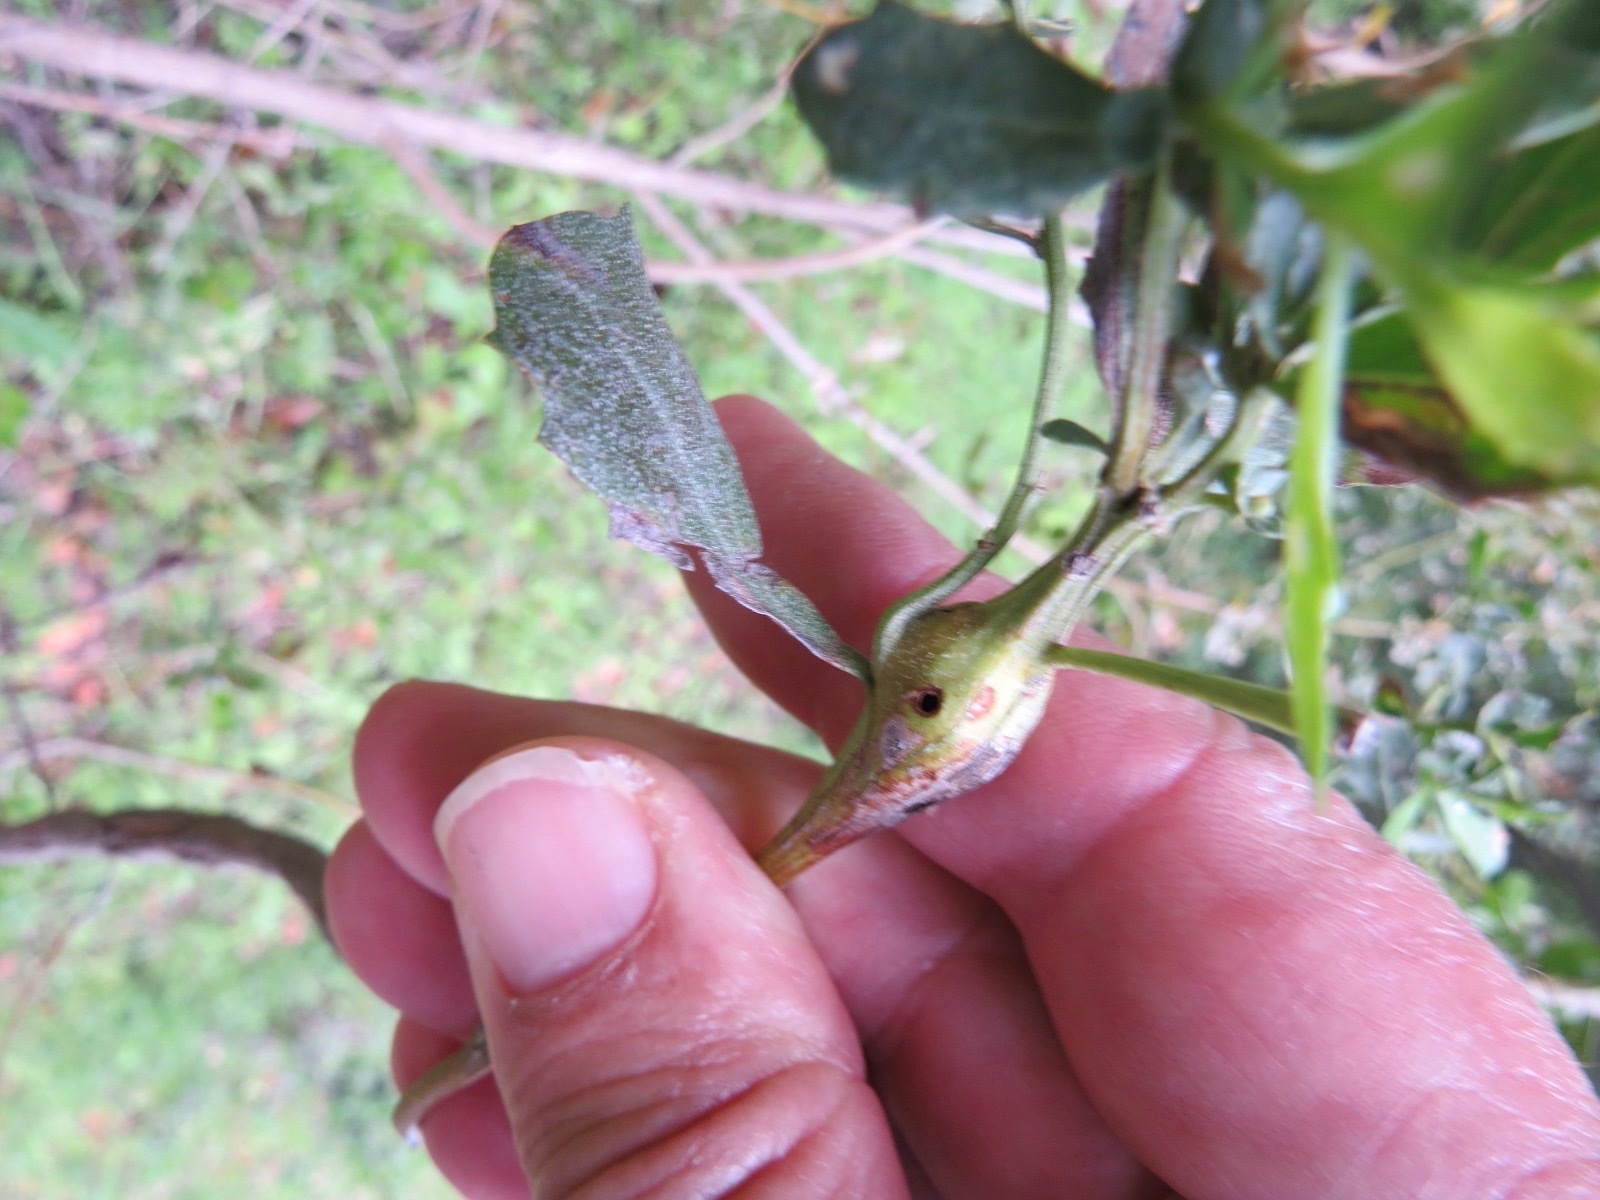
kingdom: Animalia
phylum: Arthropoda
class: Insecta
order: Lepidoptera
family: Gelechiidae
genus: Gnorimoschema
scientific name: Gnorimoschema baccharisella
